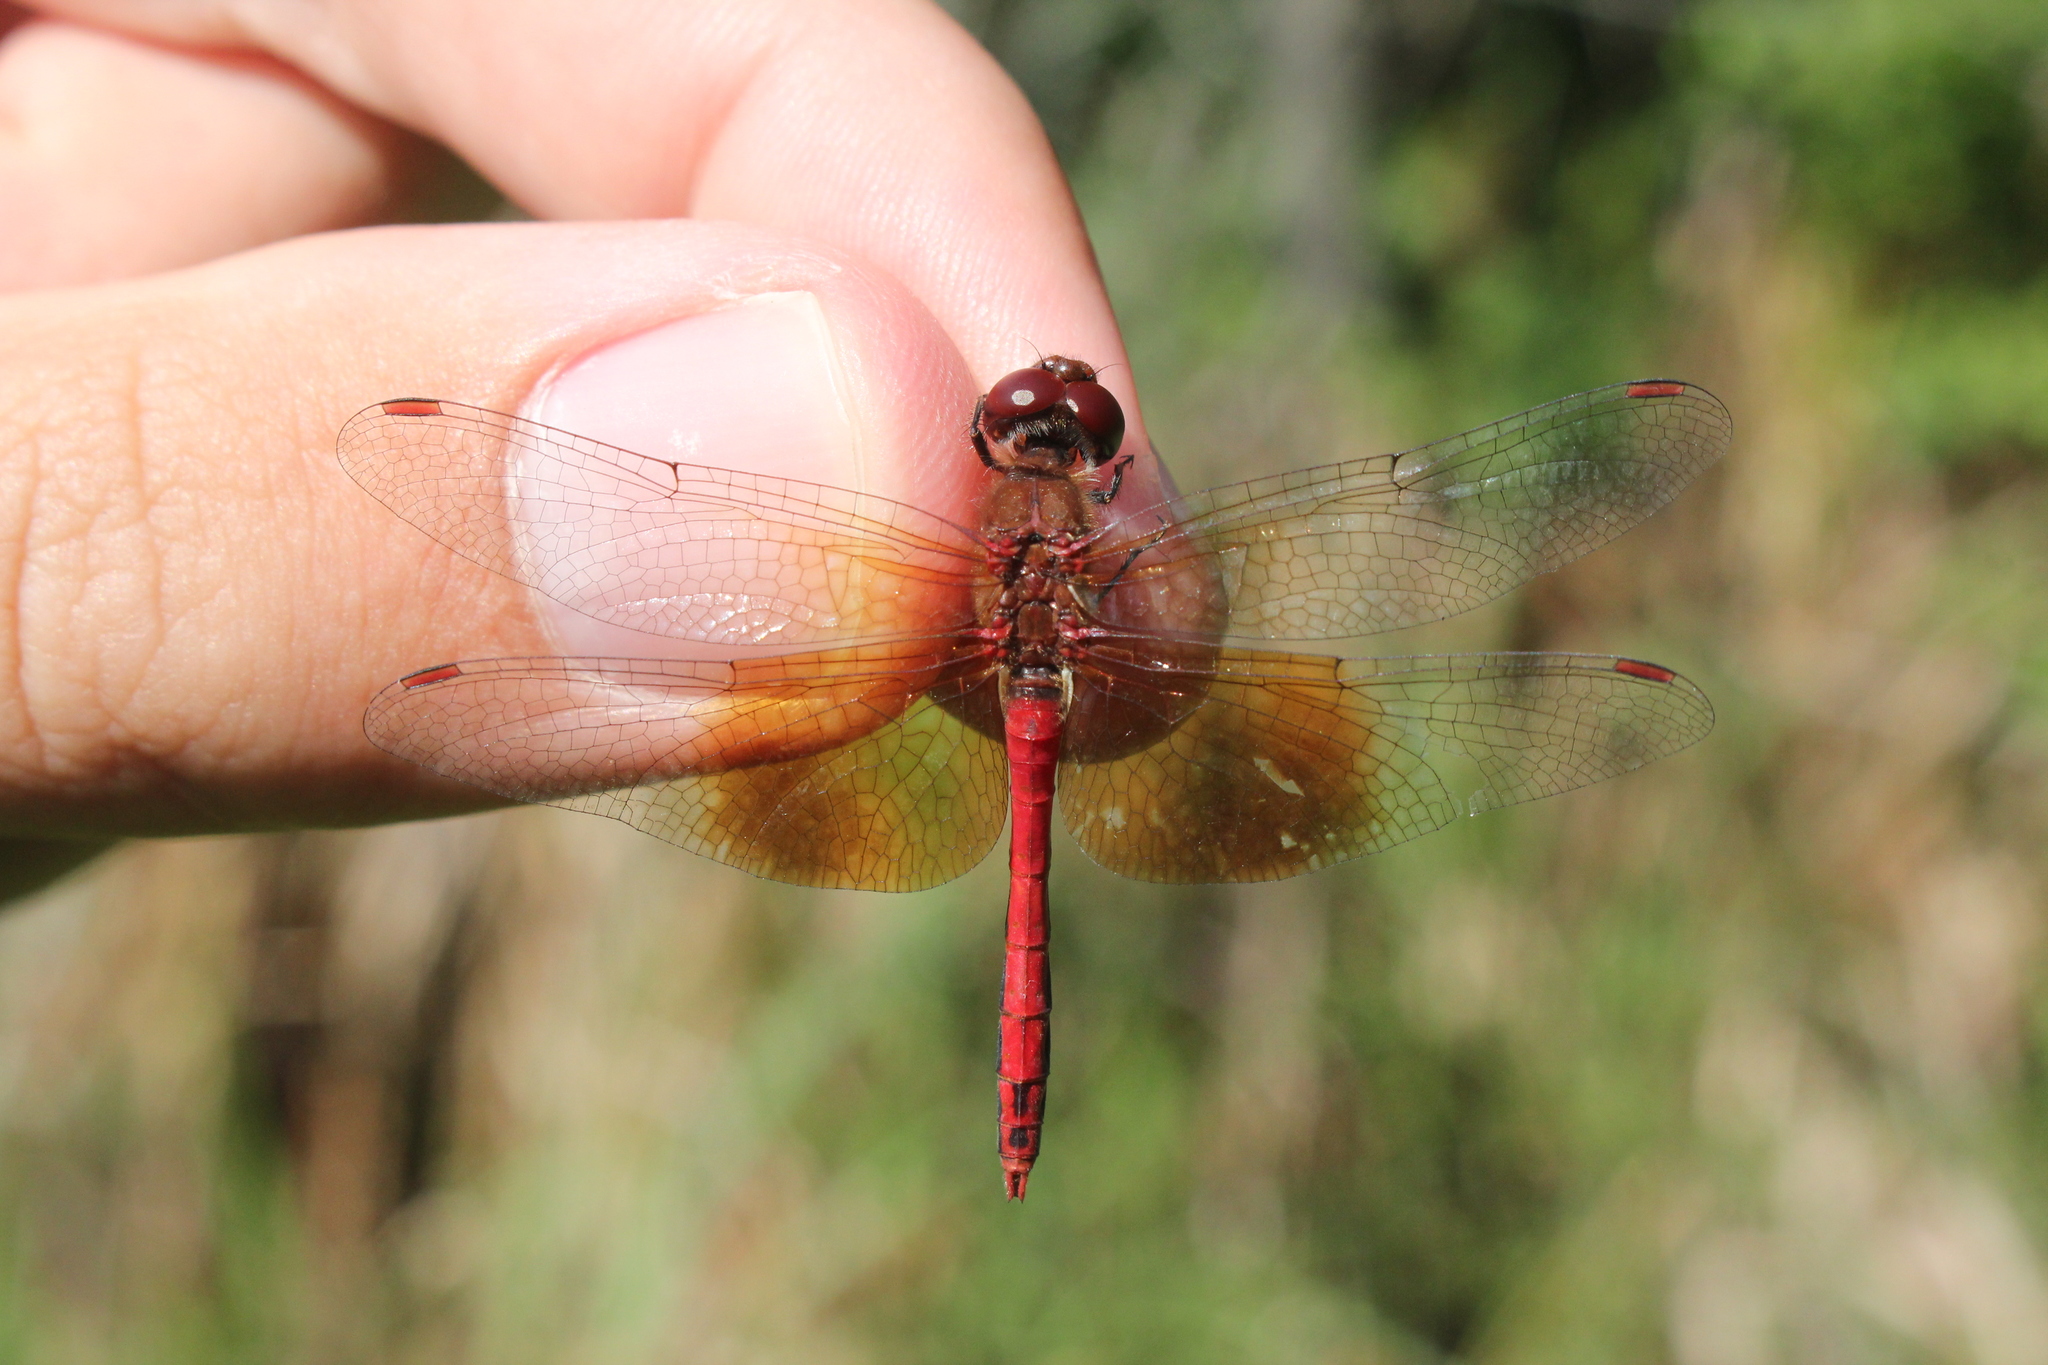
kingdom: Animalia
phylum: Arthropoda
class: Insecta
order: Odonata
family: Libellulidae
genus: Sympetrum
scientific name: Sympetrum semicinctum
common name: Band-winged meadowhawk
